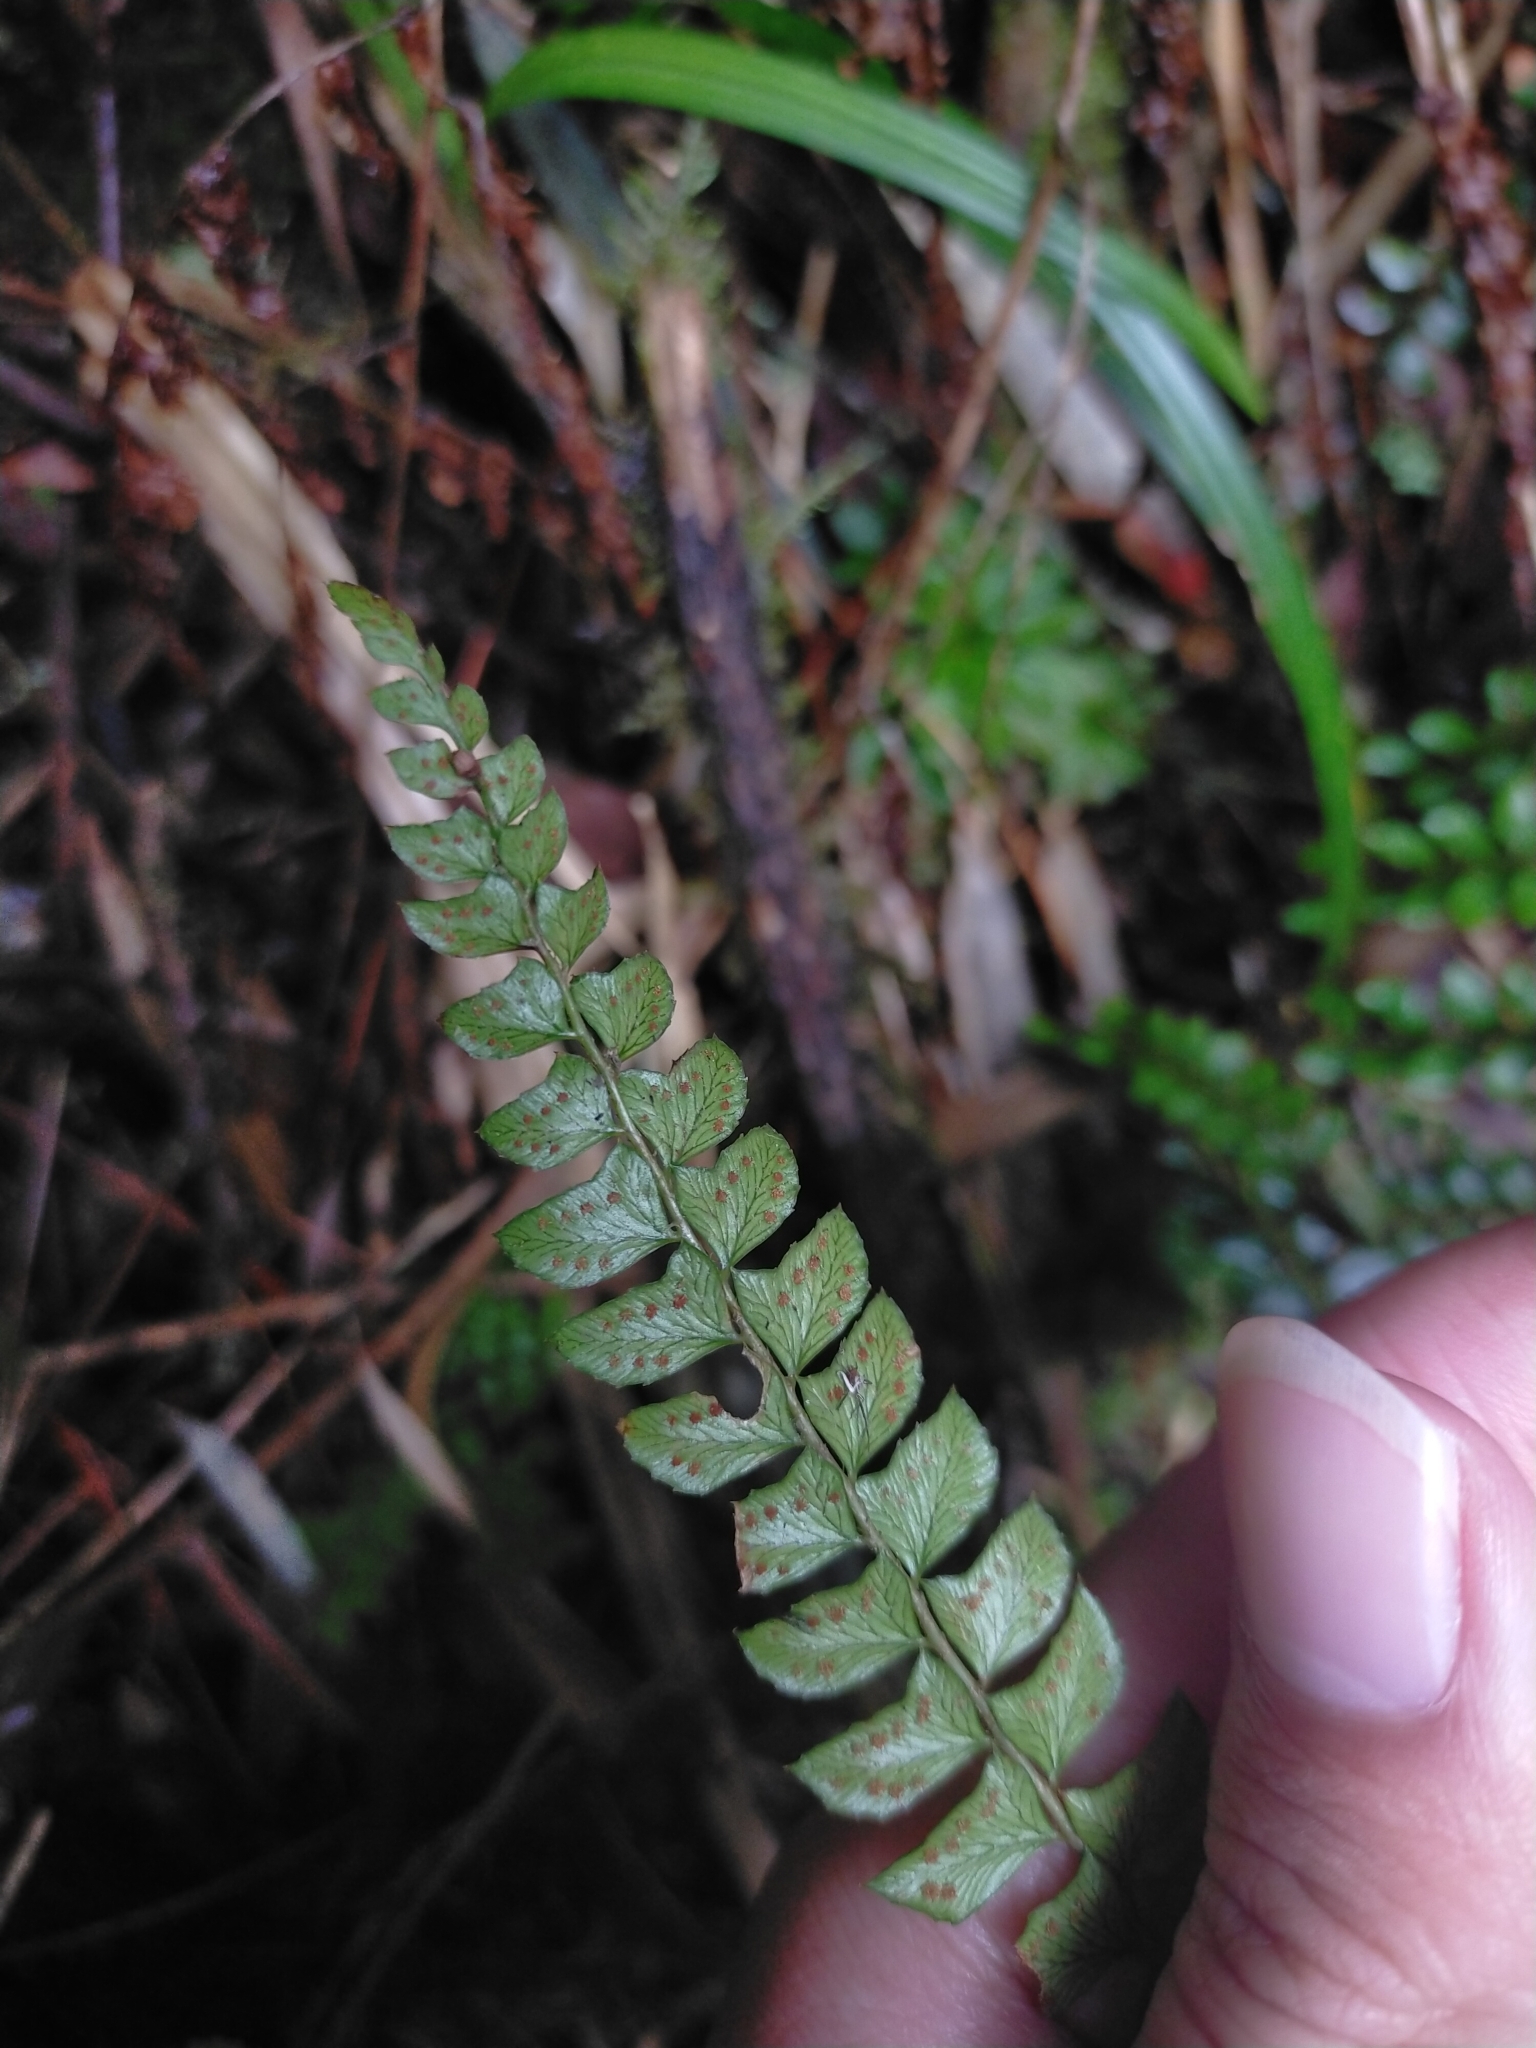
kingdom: Plantae
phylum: Tracheophyta
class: Polypodiopsida
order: Polypodiales
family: Dryopteridaceae
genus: Polystichum
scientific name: Polystichum levingei
